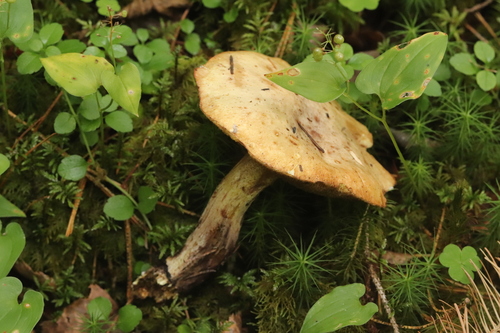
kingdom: Fungi
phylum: Basidiomycota
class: Agaricomycetes
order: Boletales
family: Suillaceae
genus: Suillus
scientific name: Suillus placidus
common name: Slippery white bolete
